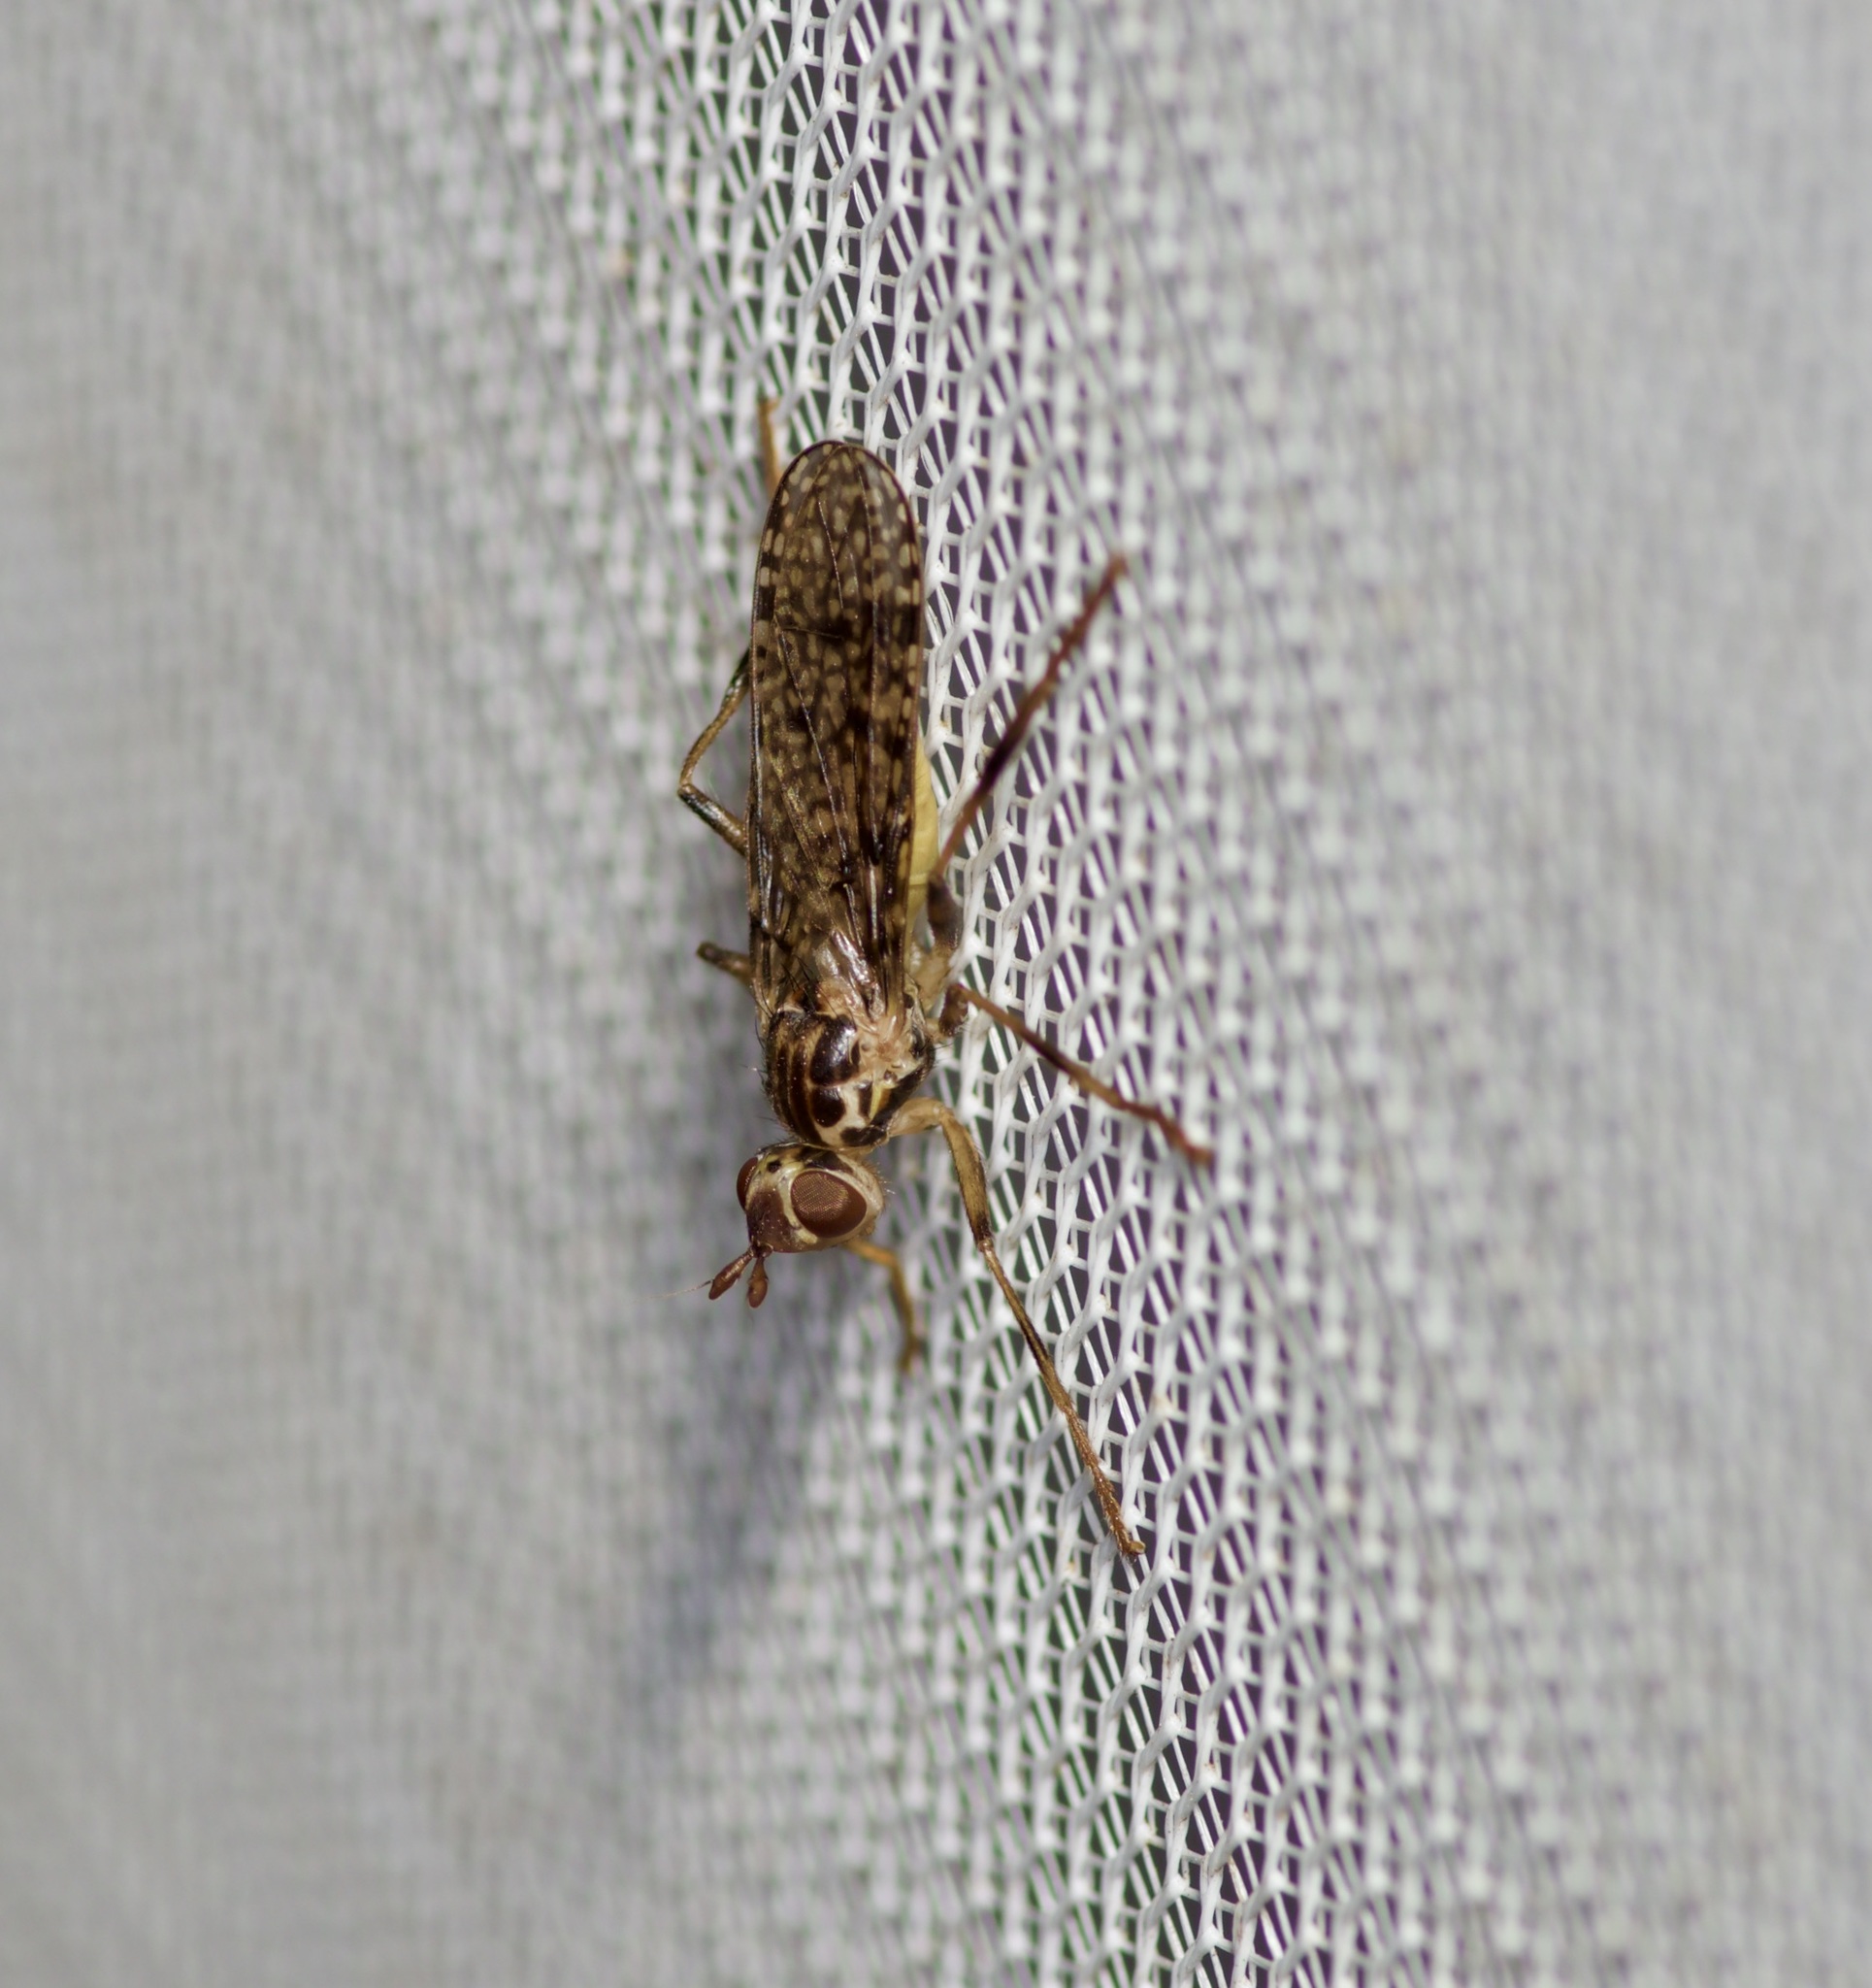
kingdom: Animalia
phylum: Arthropoda
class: Insecta
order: Diptera
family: Pyrgotidae
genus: Boreothrinax
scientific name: Boreothrinax
